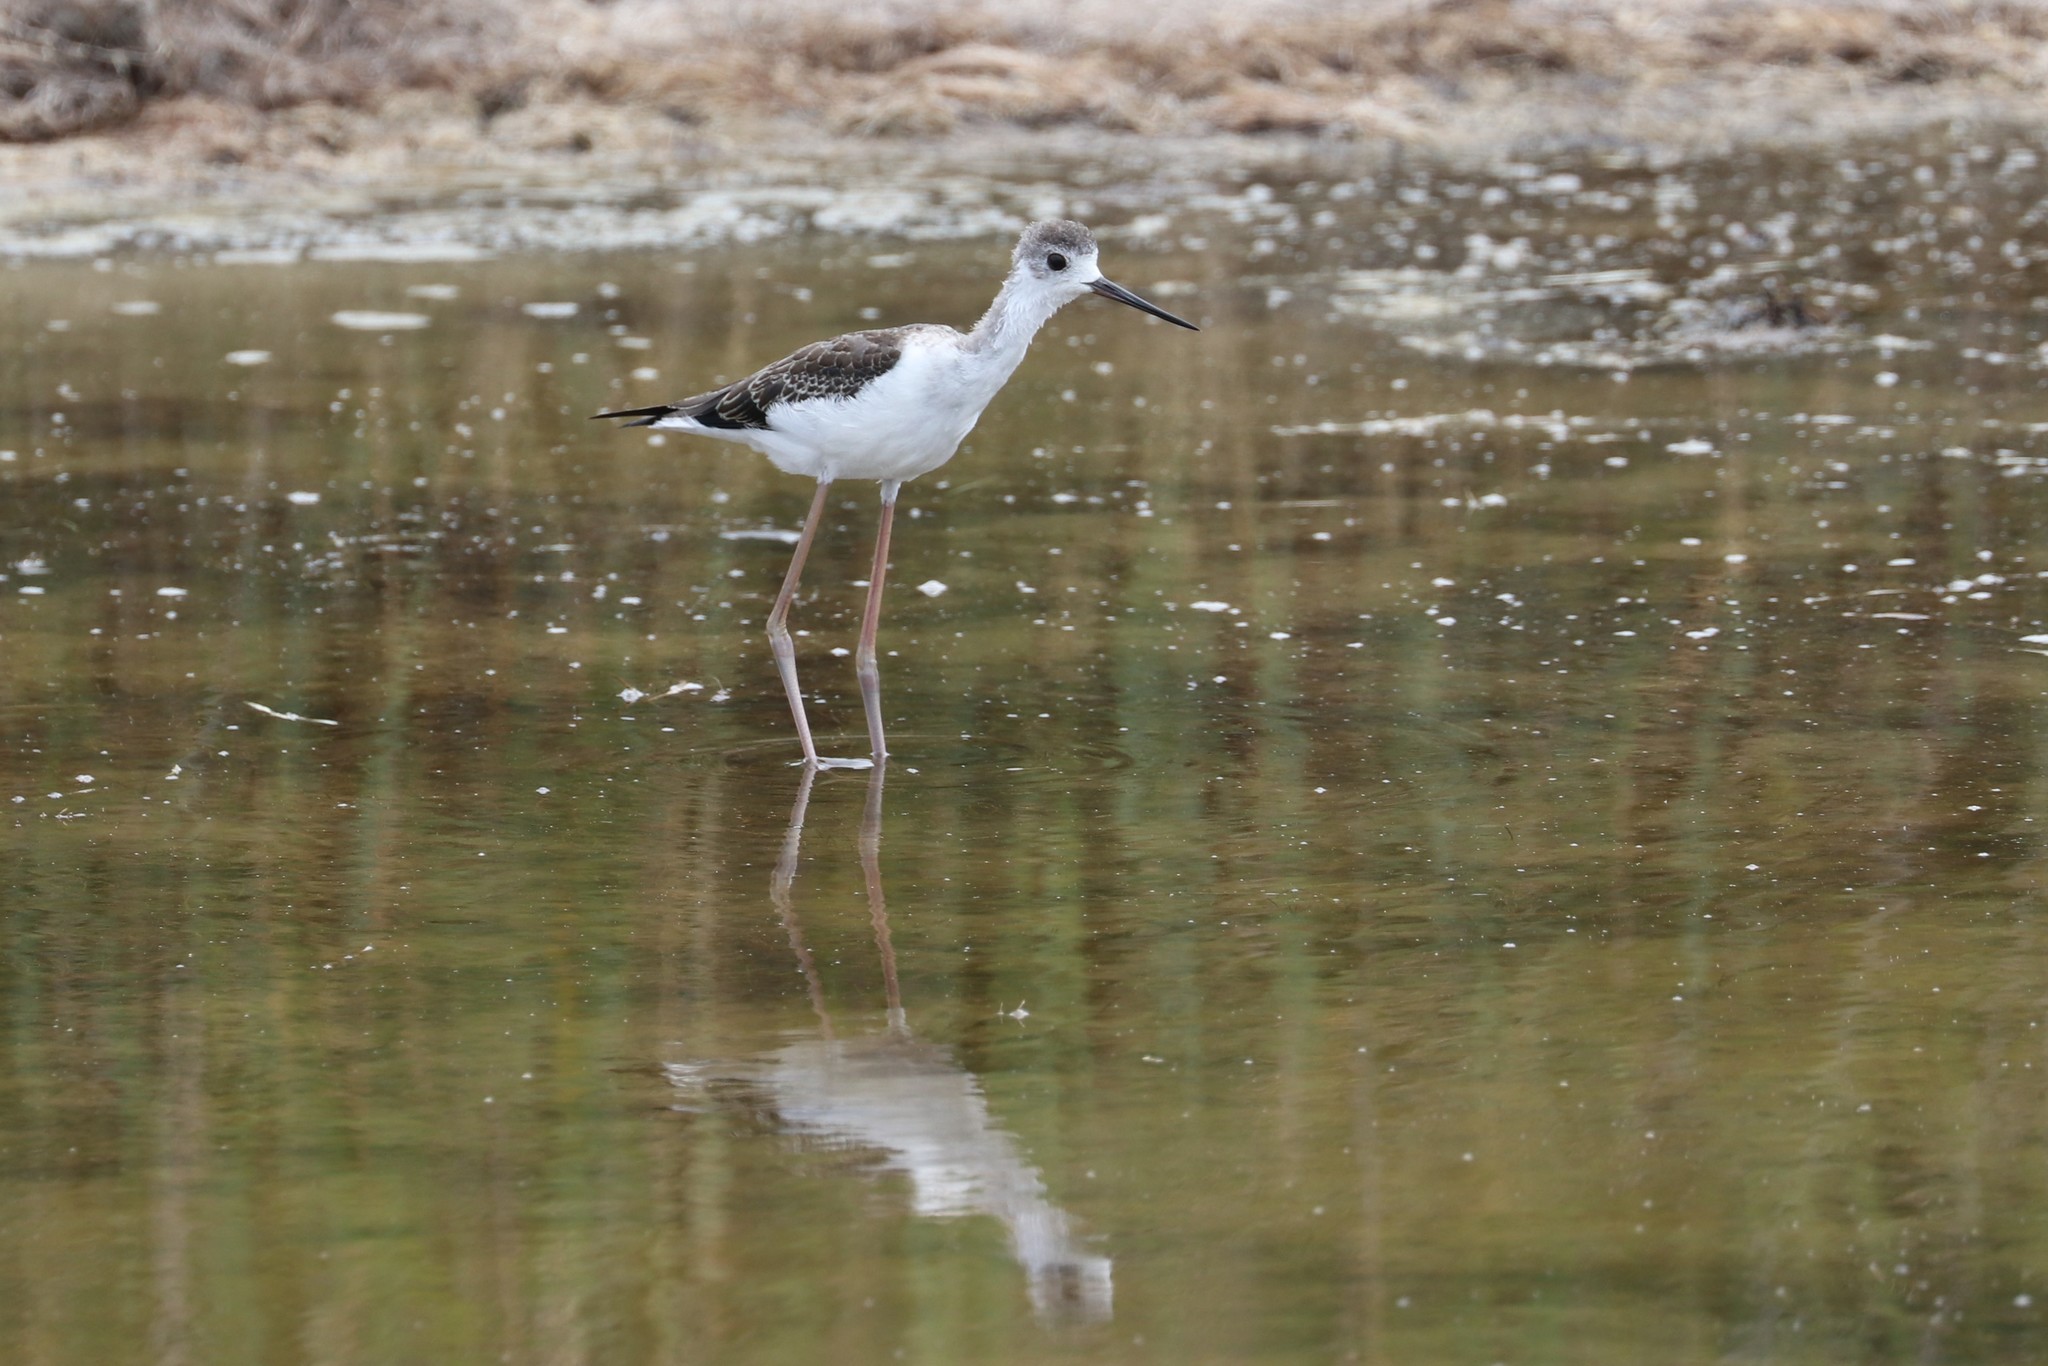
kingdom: Animalia
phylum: Chordata
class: Aves
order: Charadriiformes
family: Recurvirostridae
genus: Himantopus
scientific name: Himantopus himantopus
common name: Black-winged stilt
